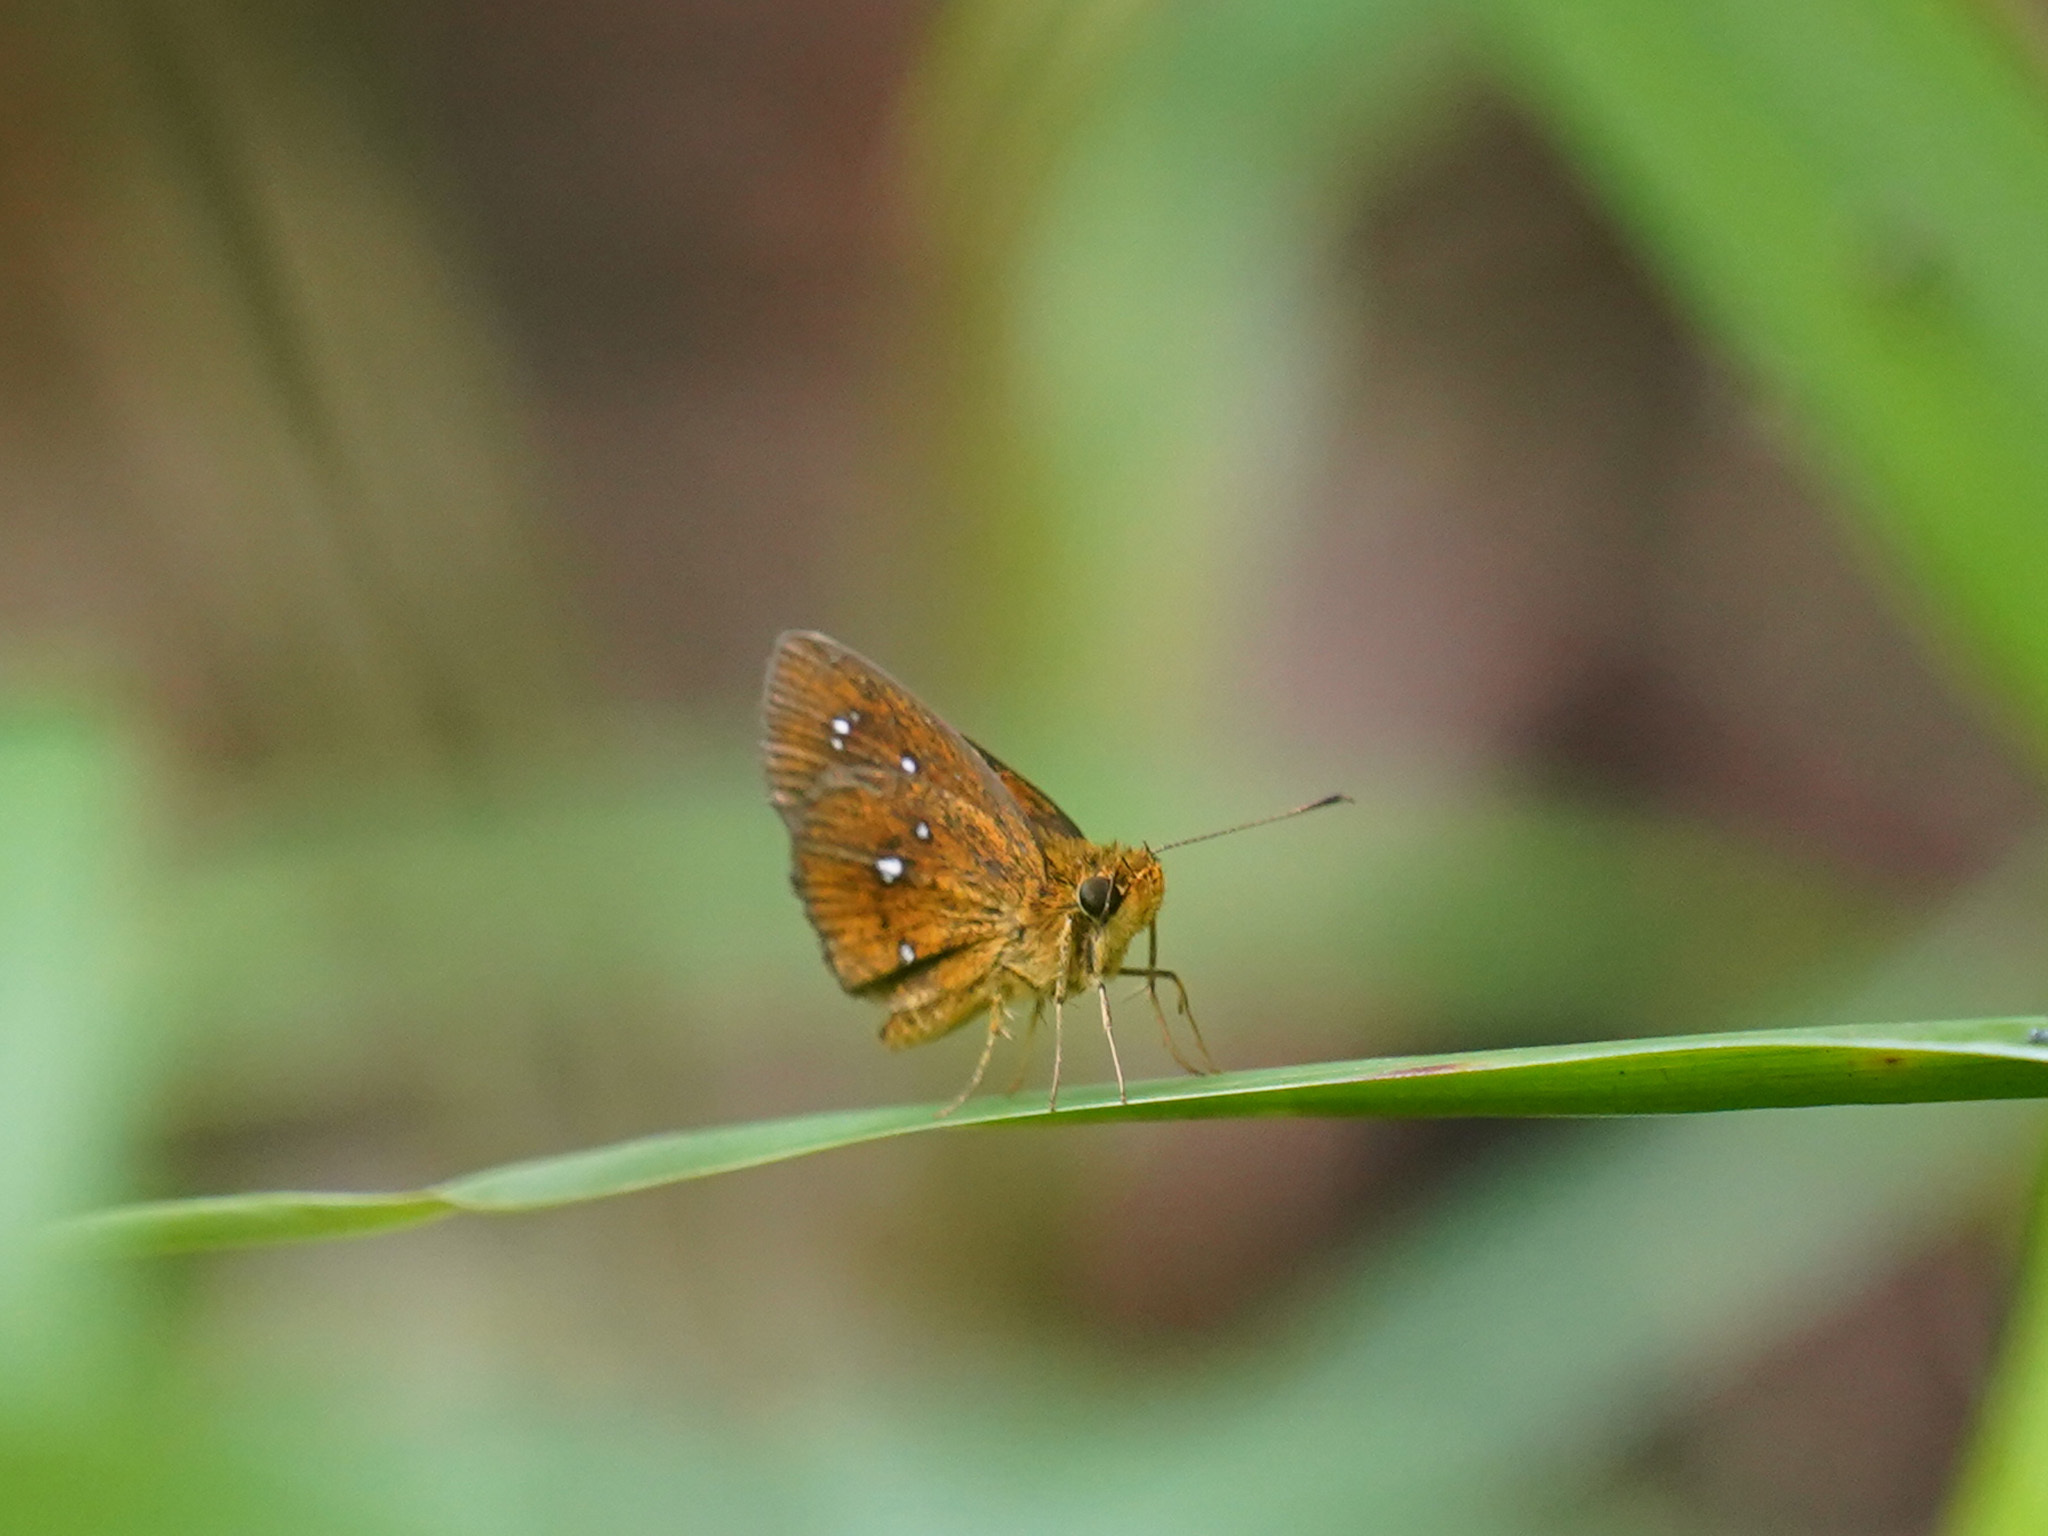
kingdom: Animalia
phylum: Arthropoda
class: Insecta
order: Lepidoptera
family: Hesperiidae
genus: Iambrix
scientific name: Iambrix salsala
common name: Chestnut bob
